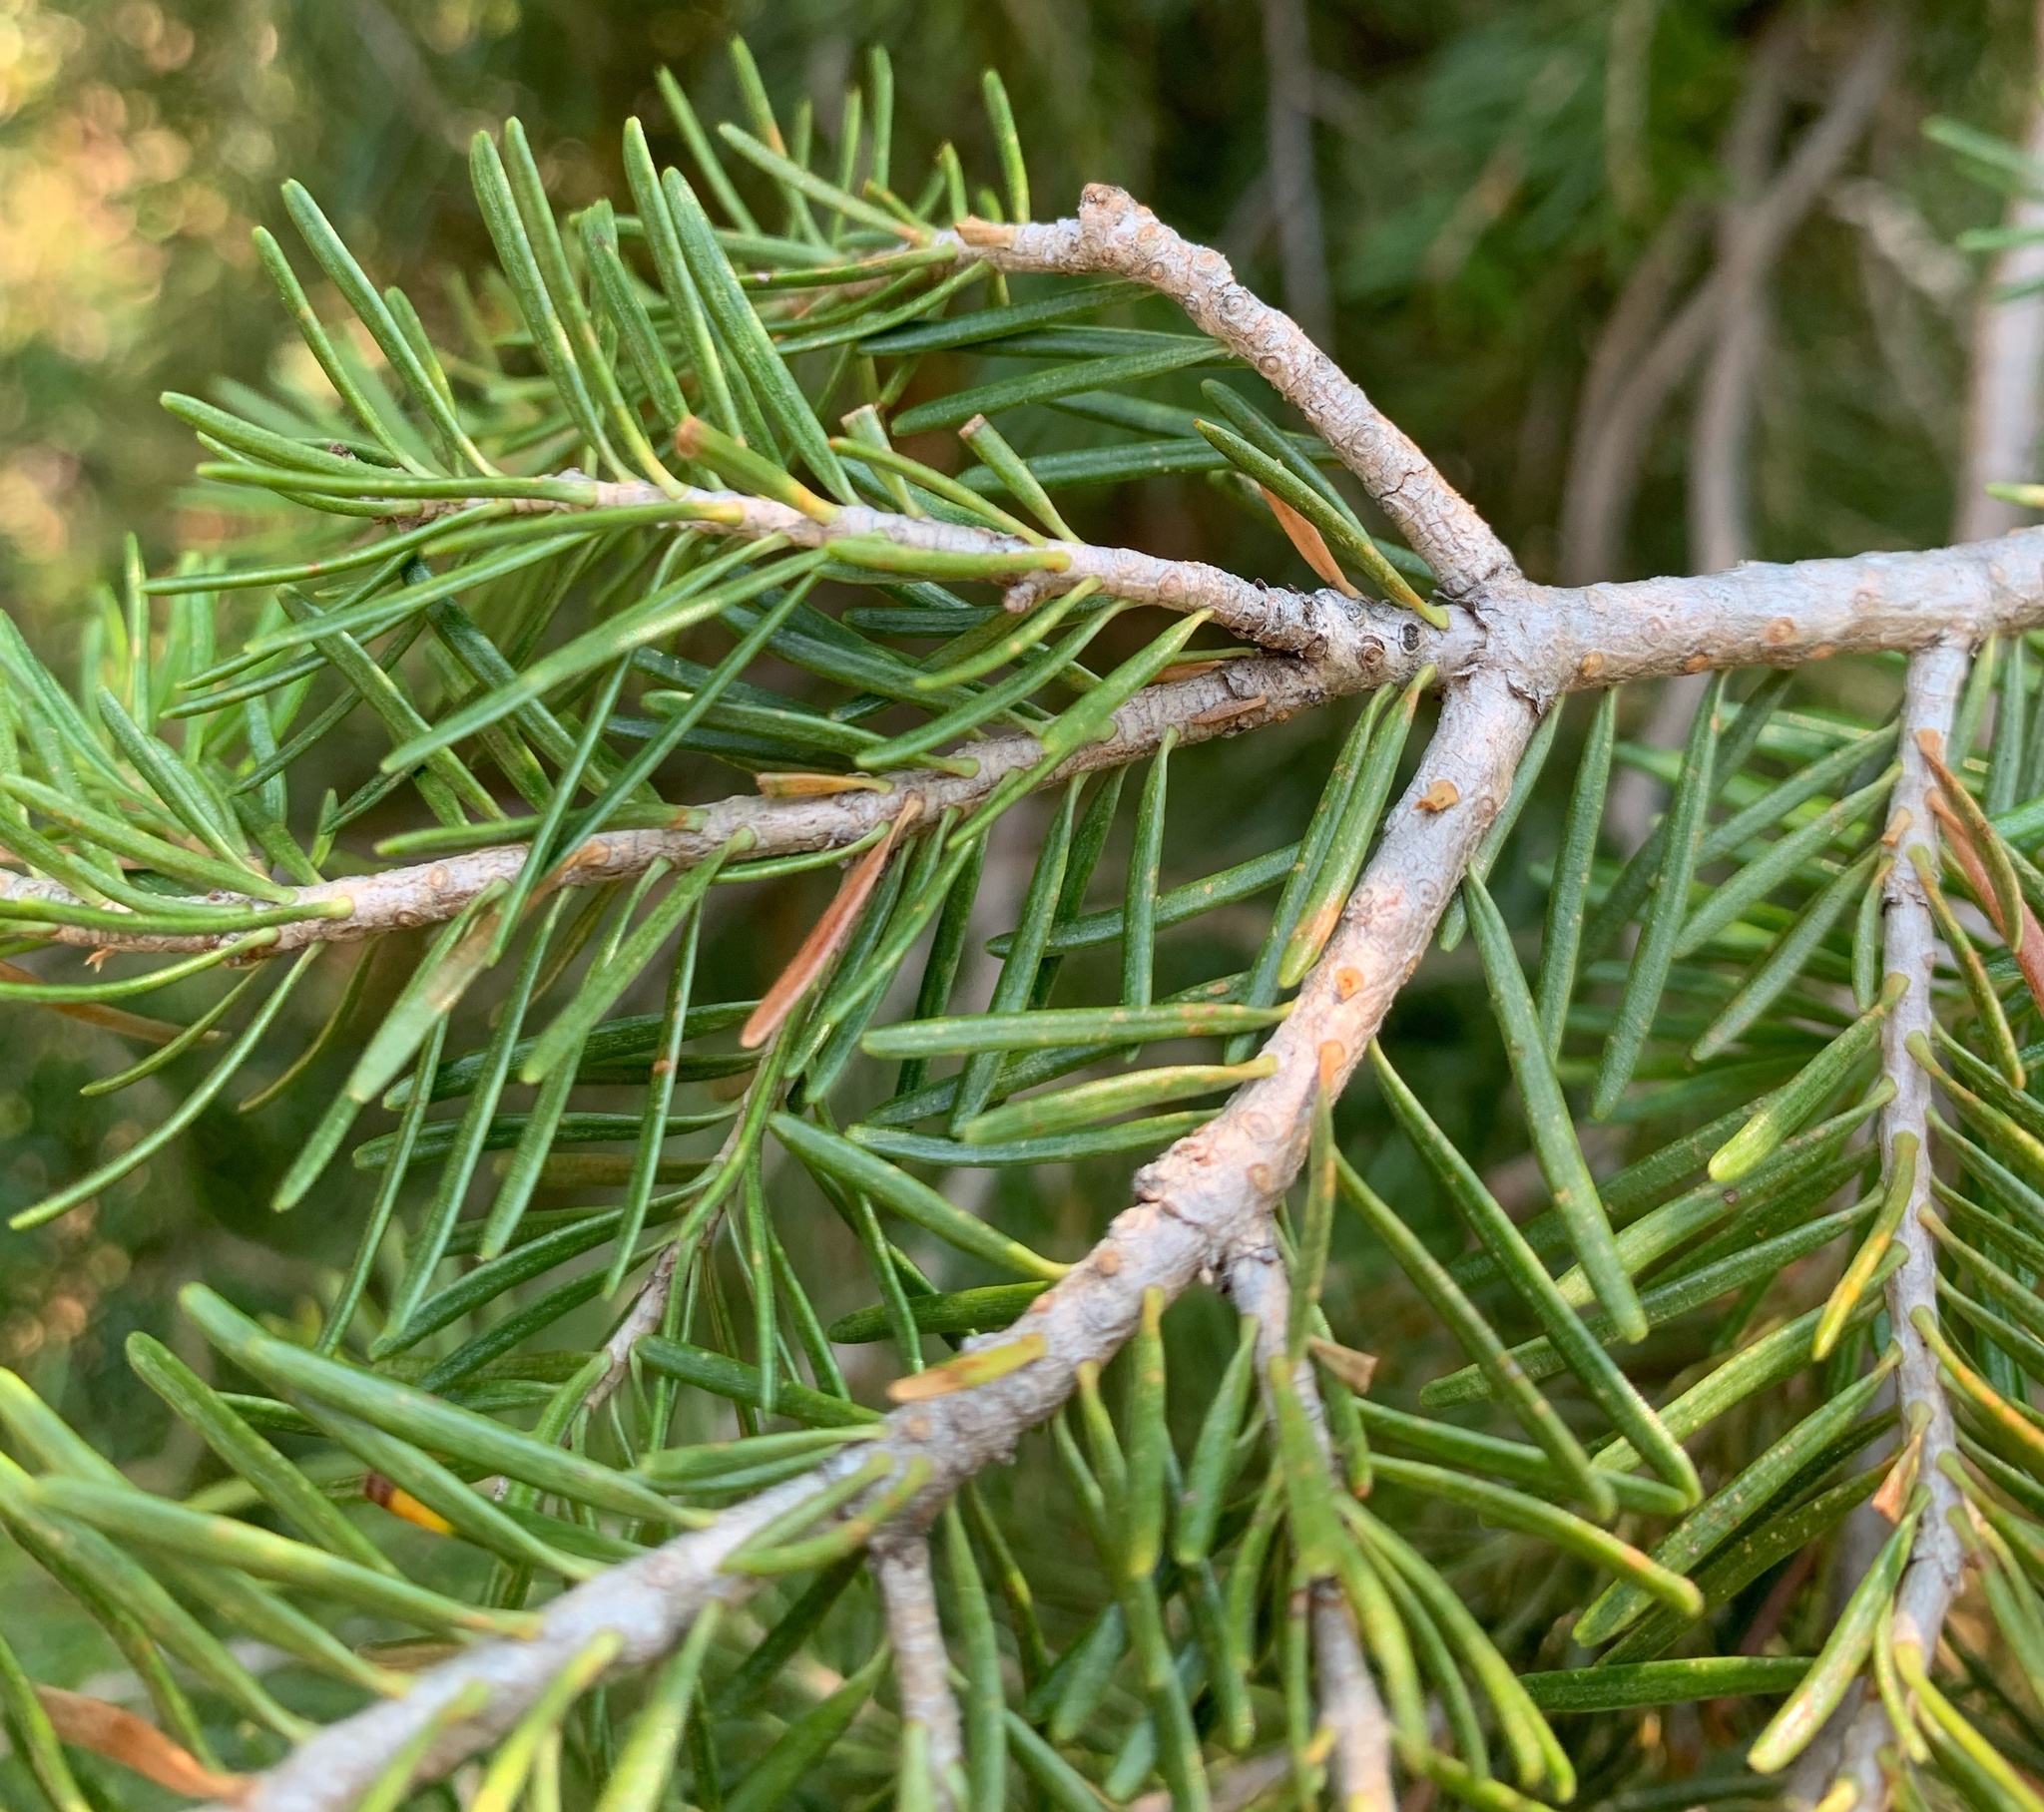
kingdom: Plantae
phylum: Tracheophyta
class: Pinopsida
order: Pinales
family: Pinaceae
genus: Pseudotsuga
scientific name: Pseudotsuga menziesii
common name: Douglas fir
